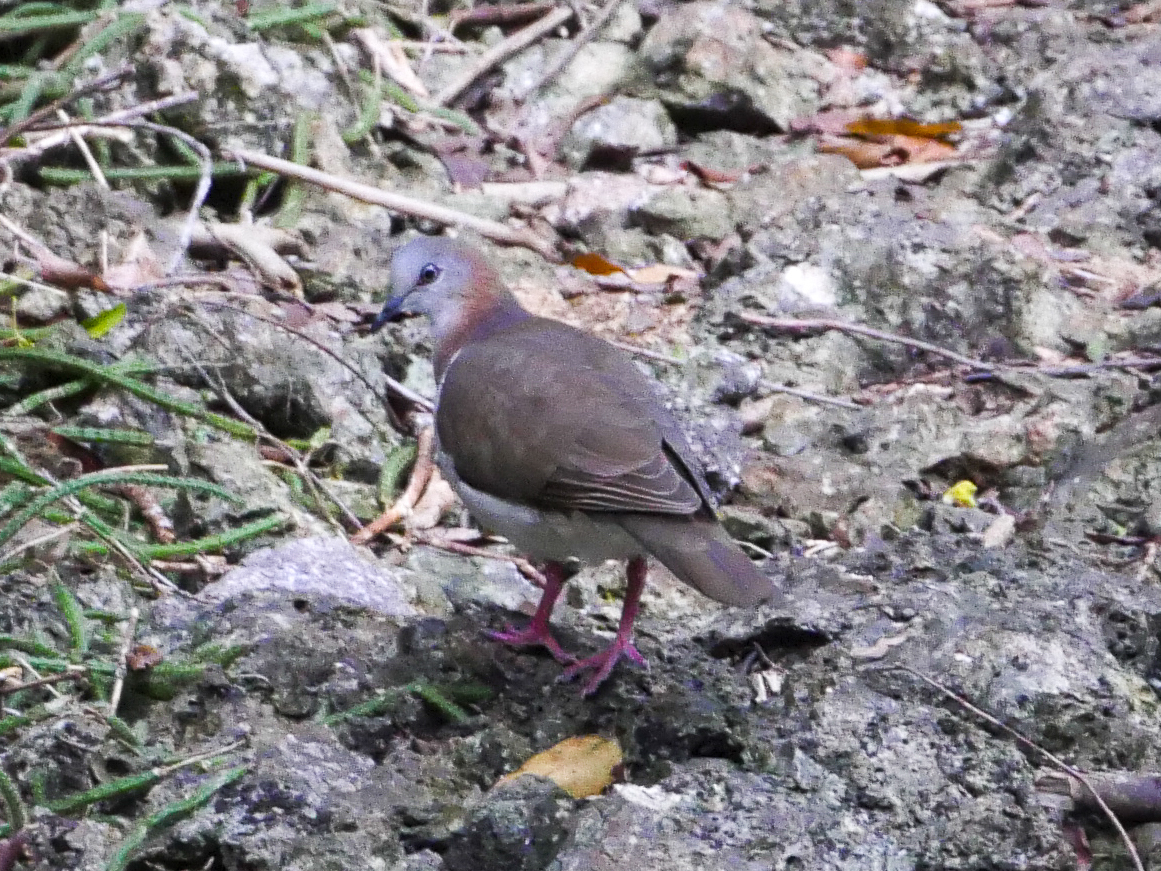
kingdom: Animalia
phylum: Chordata
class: Aves
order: Columbiformes
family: Columbidae
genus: Leptotila
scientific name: Leptotila jamaicensis
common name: Caribbean dove
